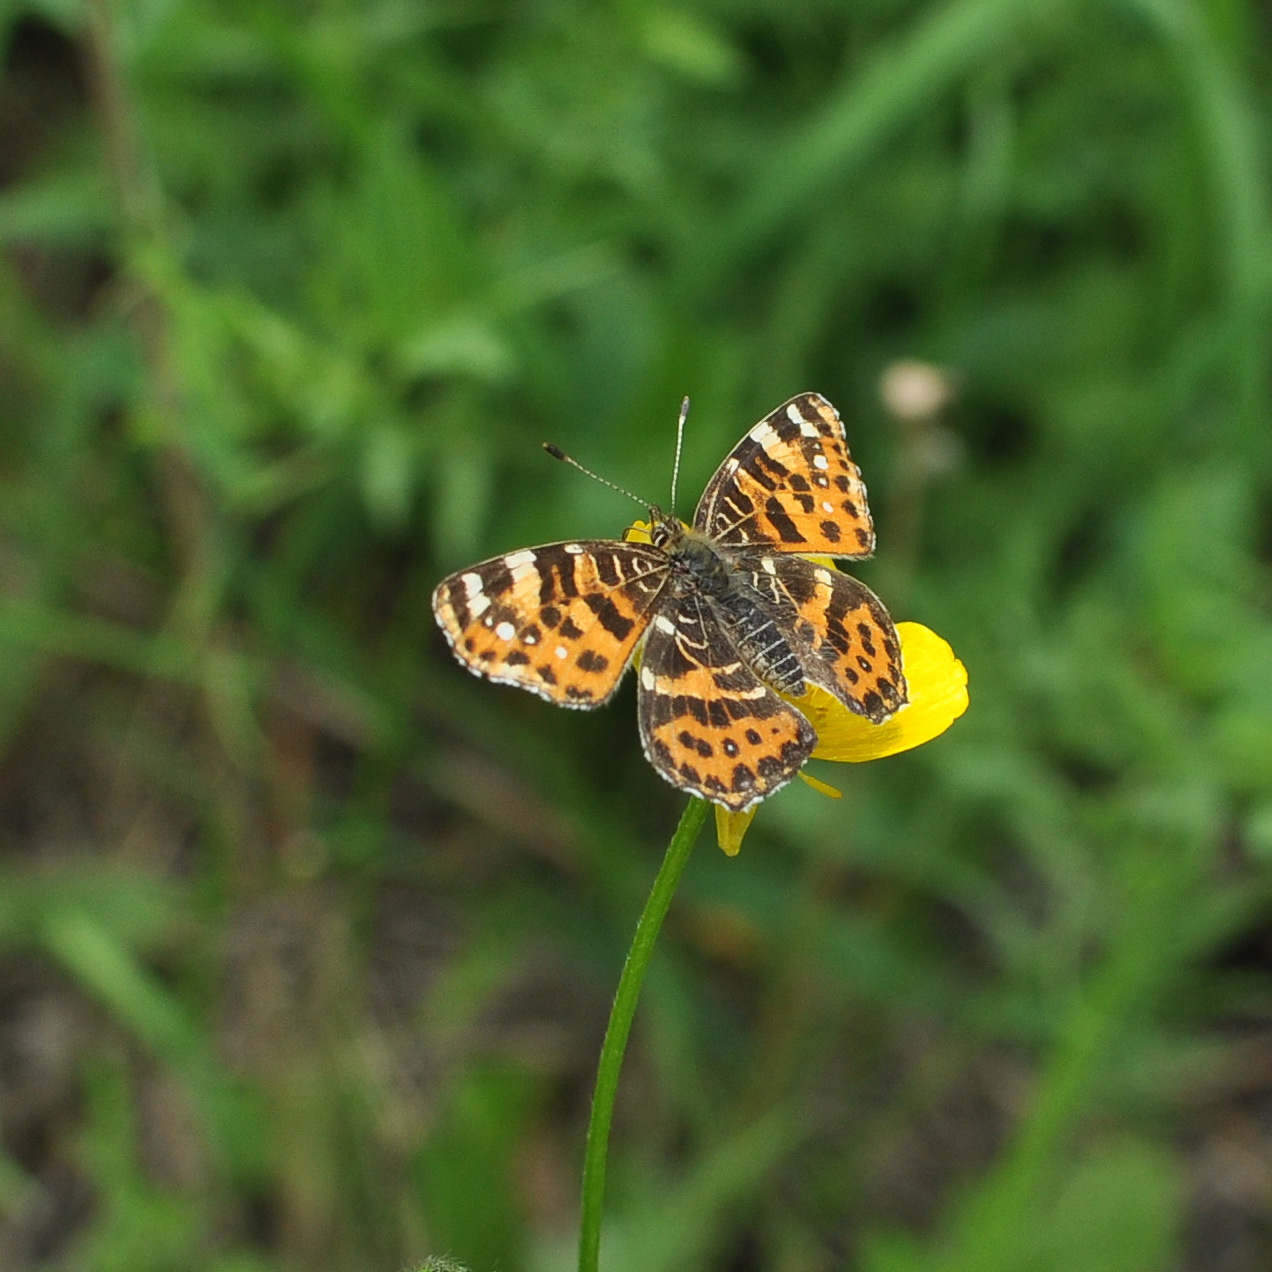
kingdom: Animalia
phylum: Arthropoda
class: Insecta
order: Lepidoptera
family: Nymphalidae
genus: Araschnia
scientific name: Araschnia levana
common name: Map butterfly
